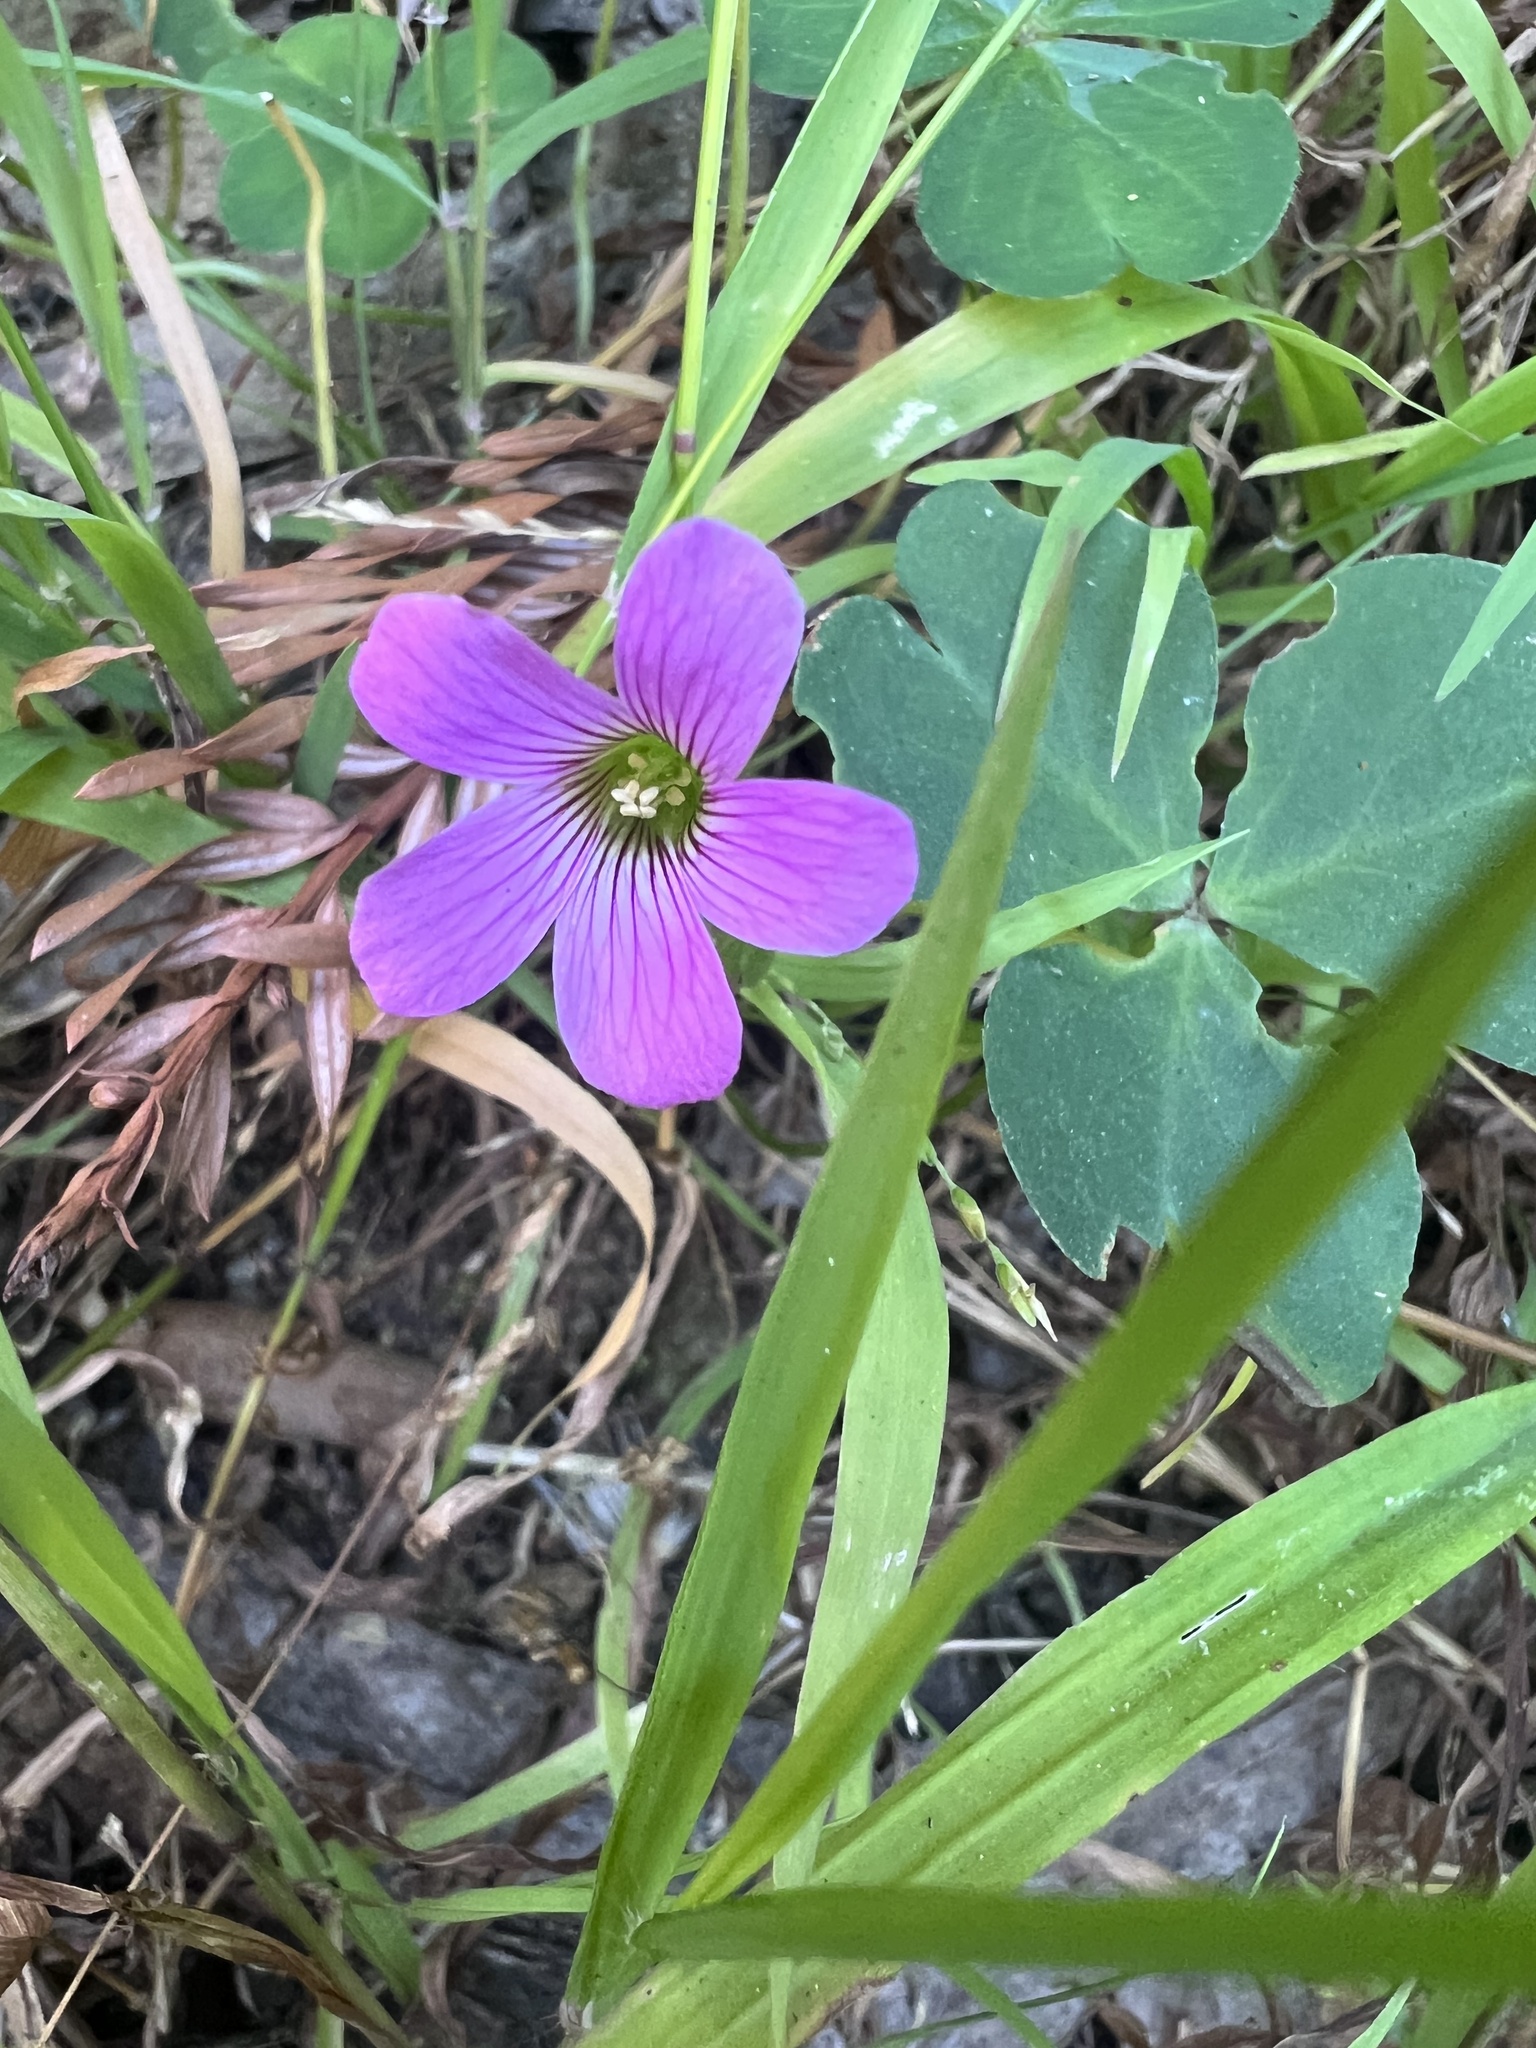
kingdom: Plantae
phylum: Tracheophyta
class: Magnoliopsida
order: Oxalidales
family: Oxalidaceae
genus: Oxalis
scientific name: Oxalis debilis
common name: Large-flowered pink-sorrel
